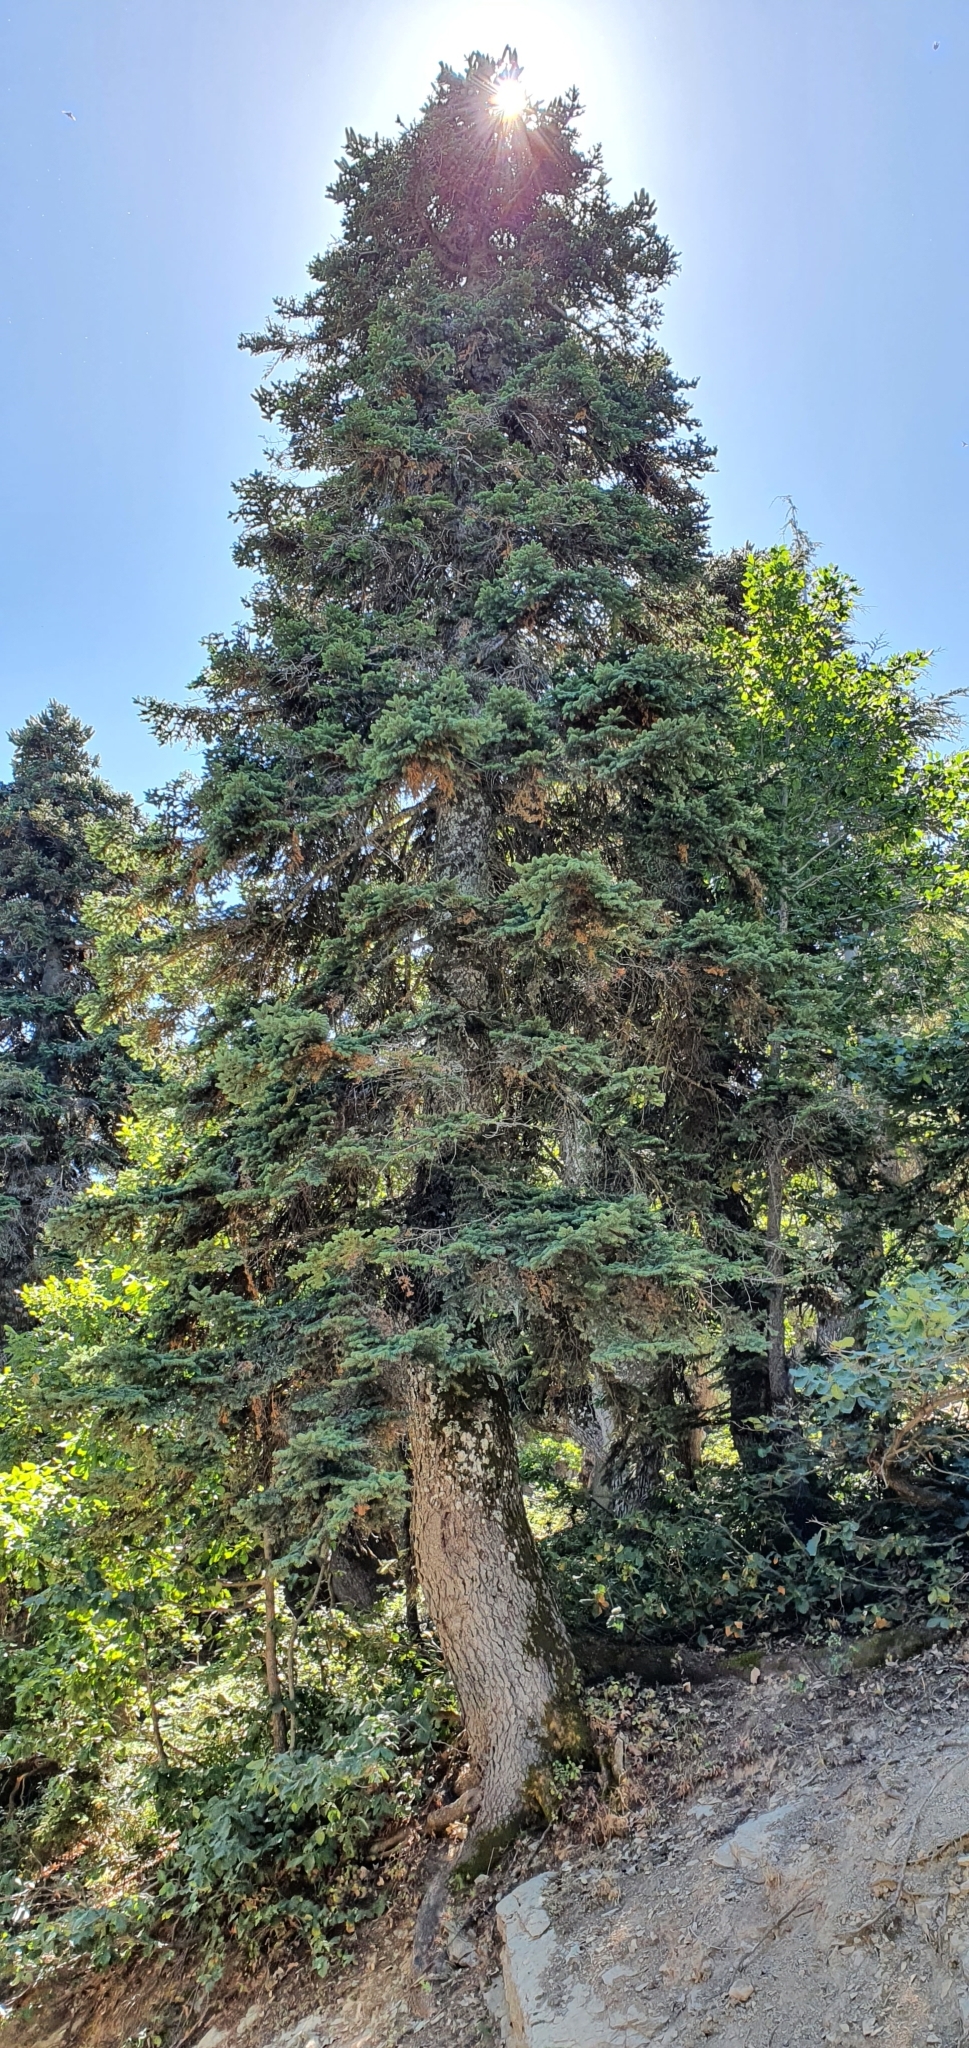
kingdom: Plantae
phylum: Tracheophyta
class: Pinopsida
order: Pinales
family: Pinaceae
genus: Abies
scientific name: Abies numidica
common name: Algerian fir
